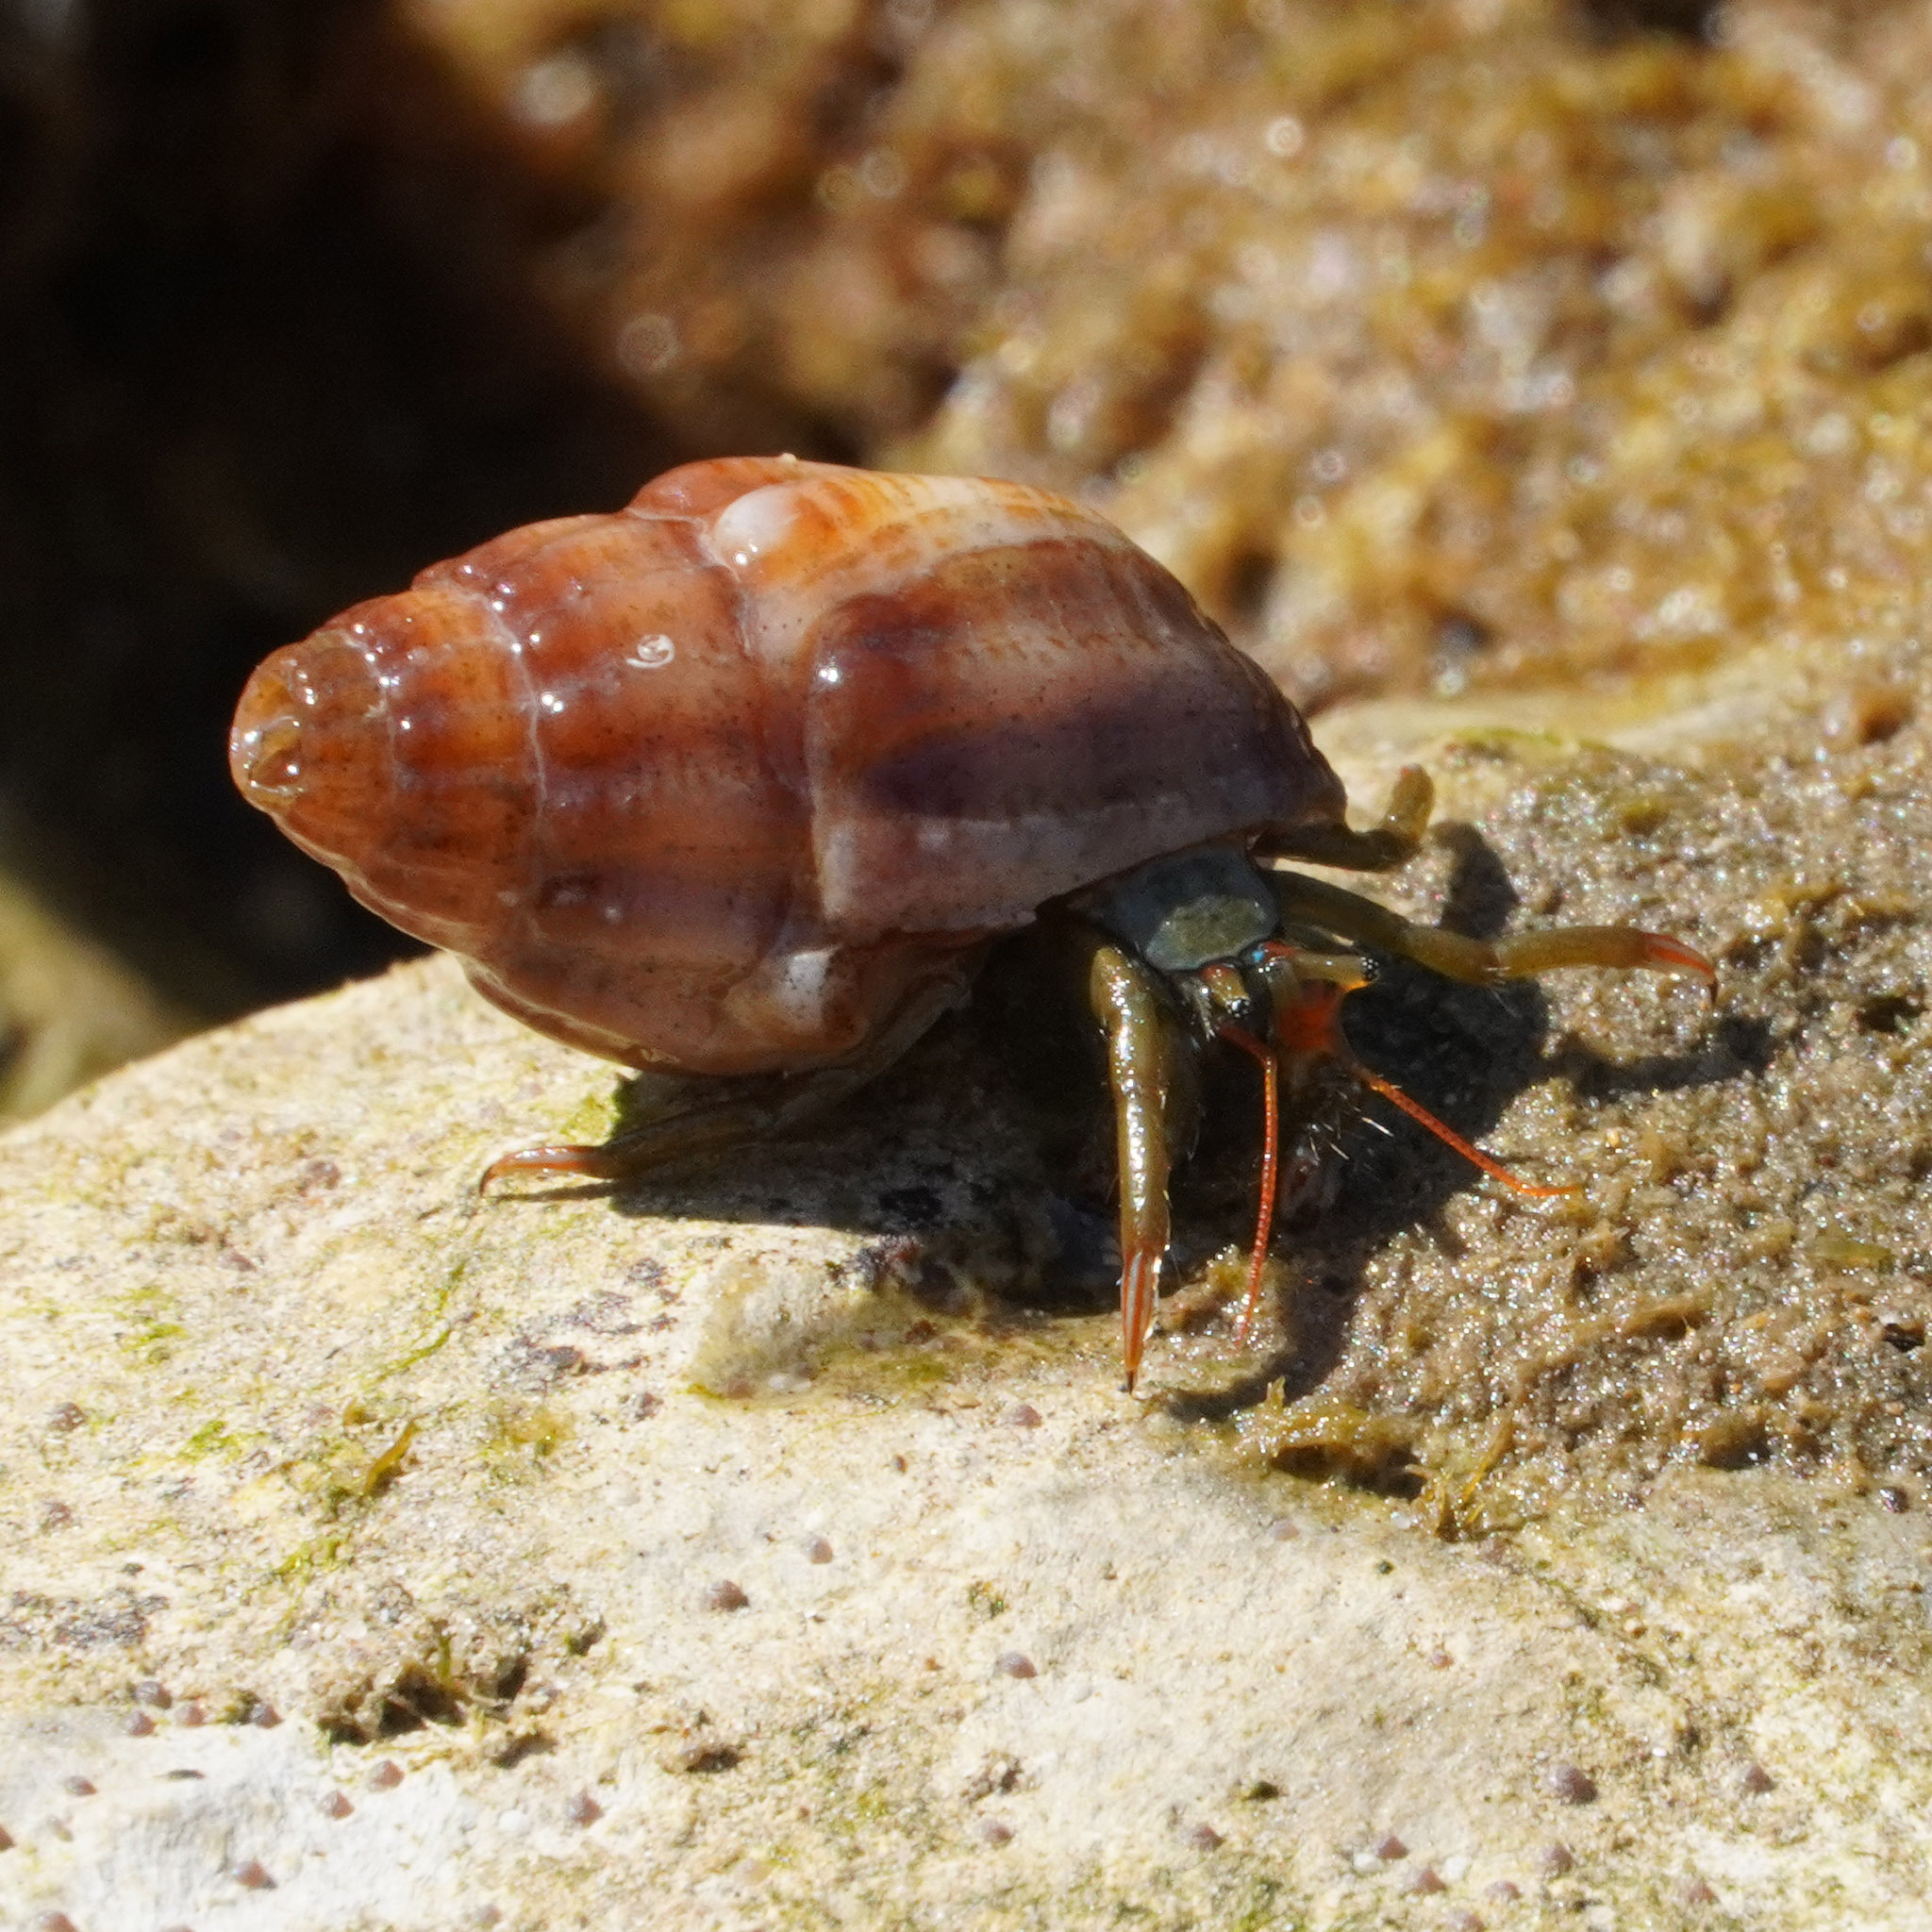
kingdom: Animalia
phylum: Arthropoda
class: Malacostraca
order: Decapoda
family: Diogenidae
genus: Clibanarius
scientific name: Clibanarius erythropus
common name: Hermit crab
